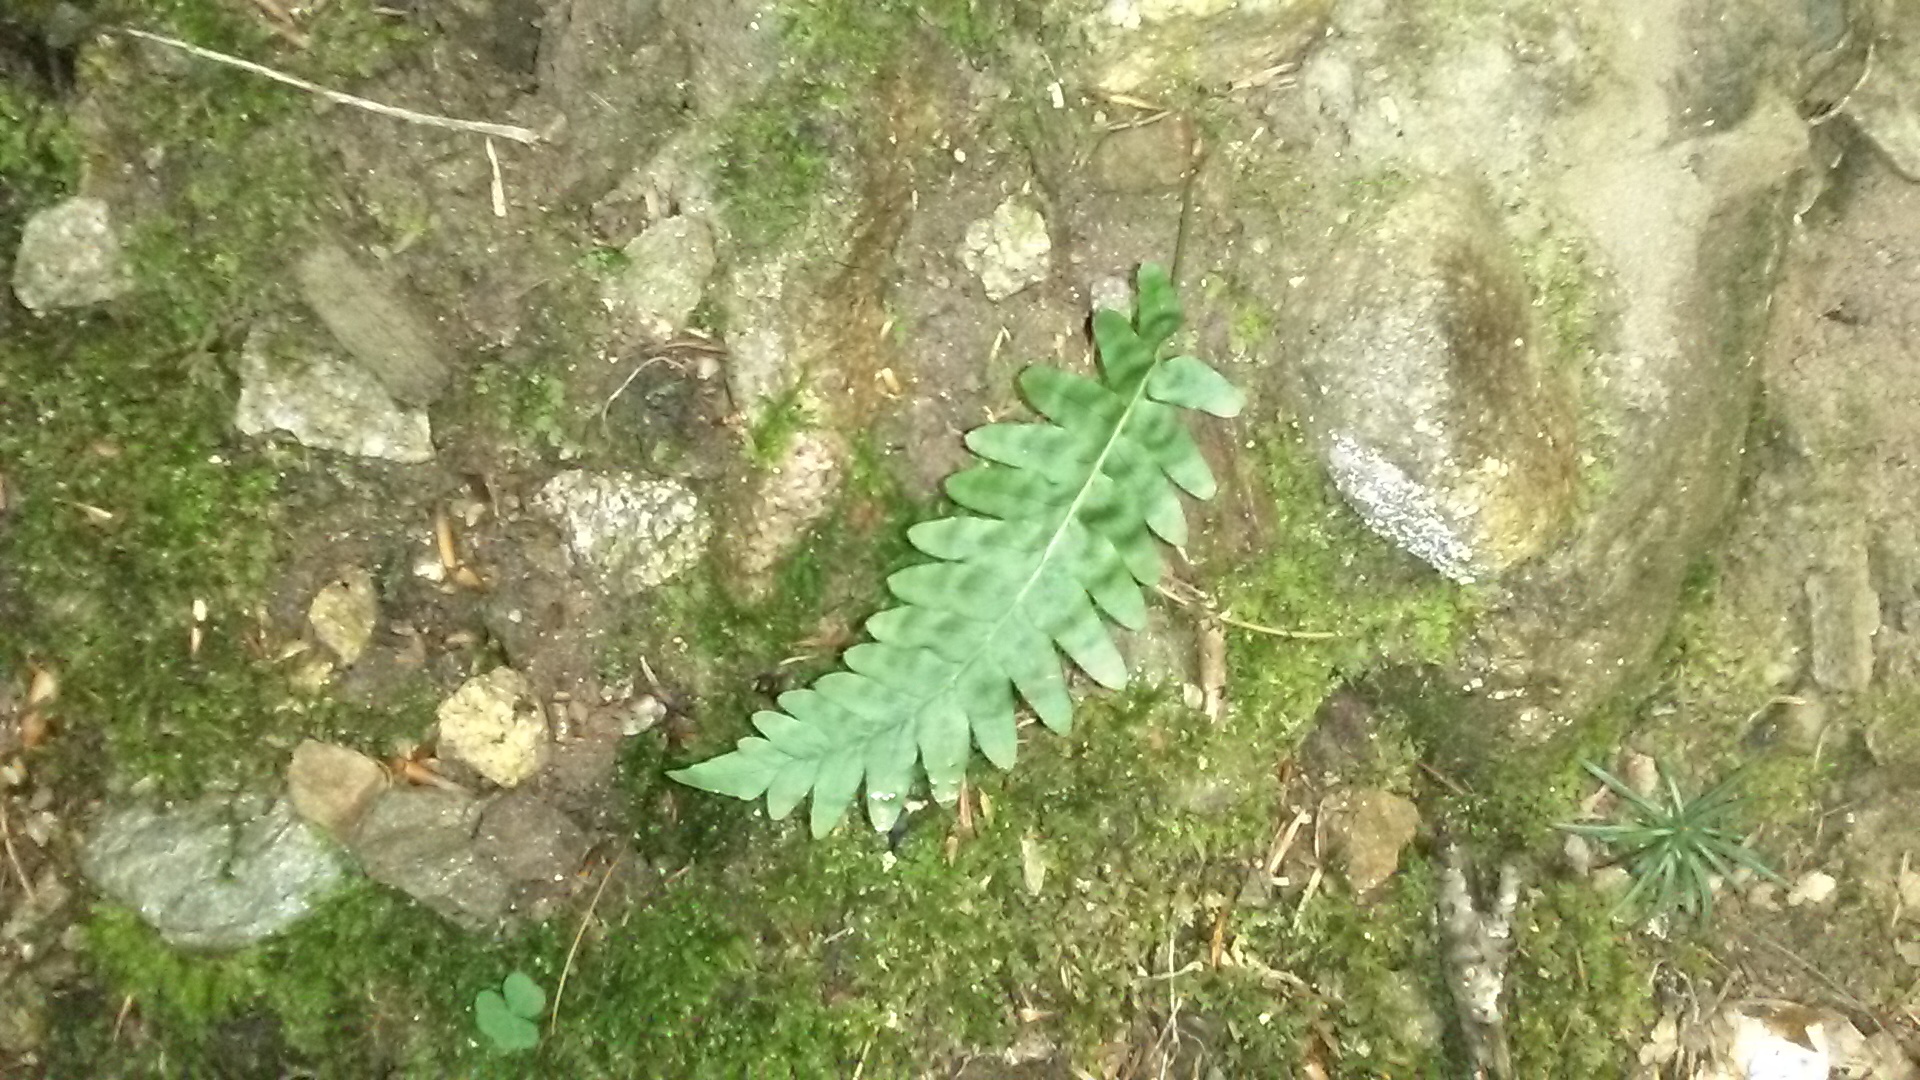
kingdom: Plantae
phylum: Tracheophyta
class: Polypodiopsida
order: Polypodiales
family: Polypodiaceae
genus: Polypodium
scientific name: Polypodium vulgare
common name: Common polypody
